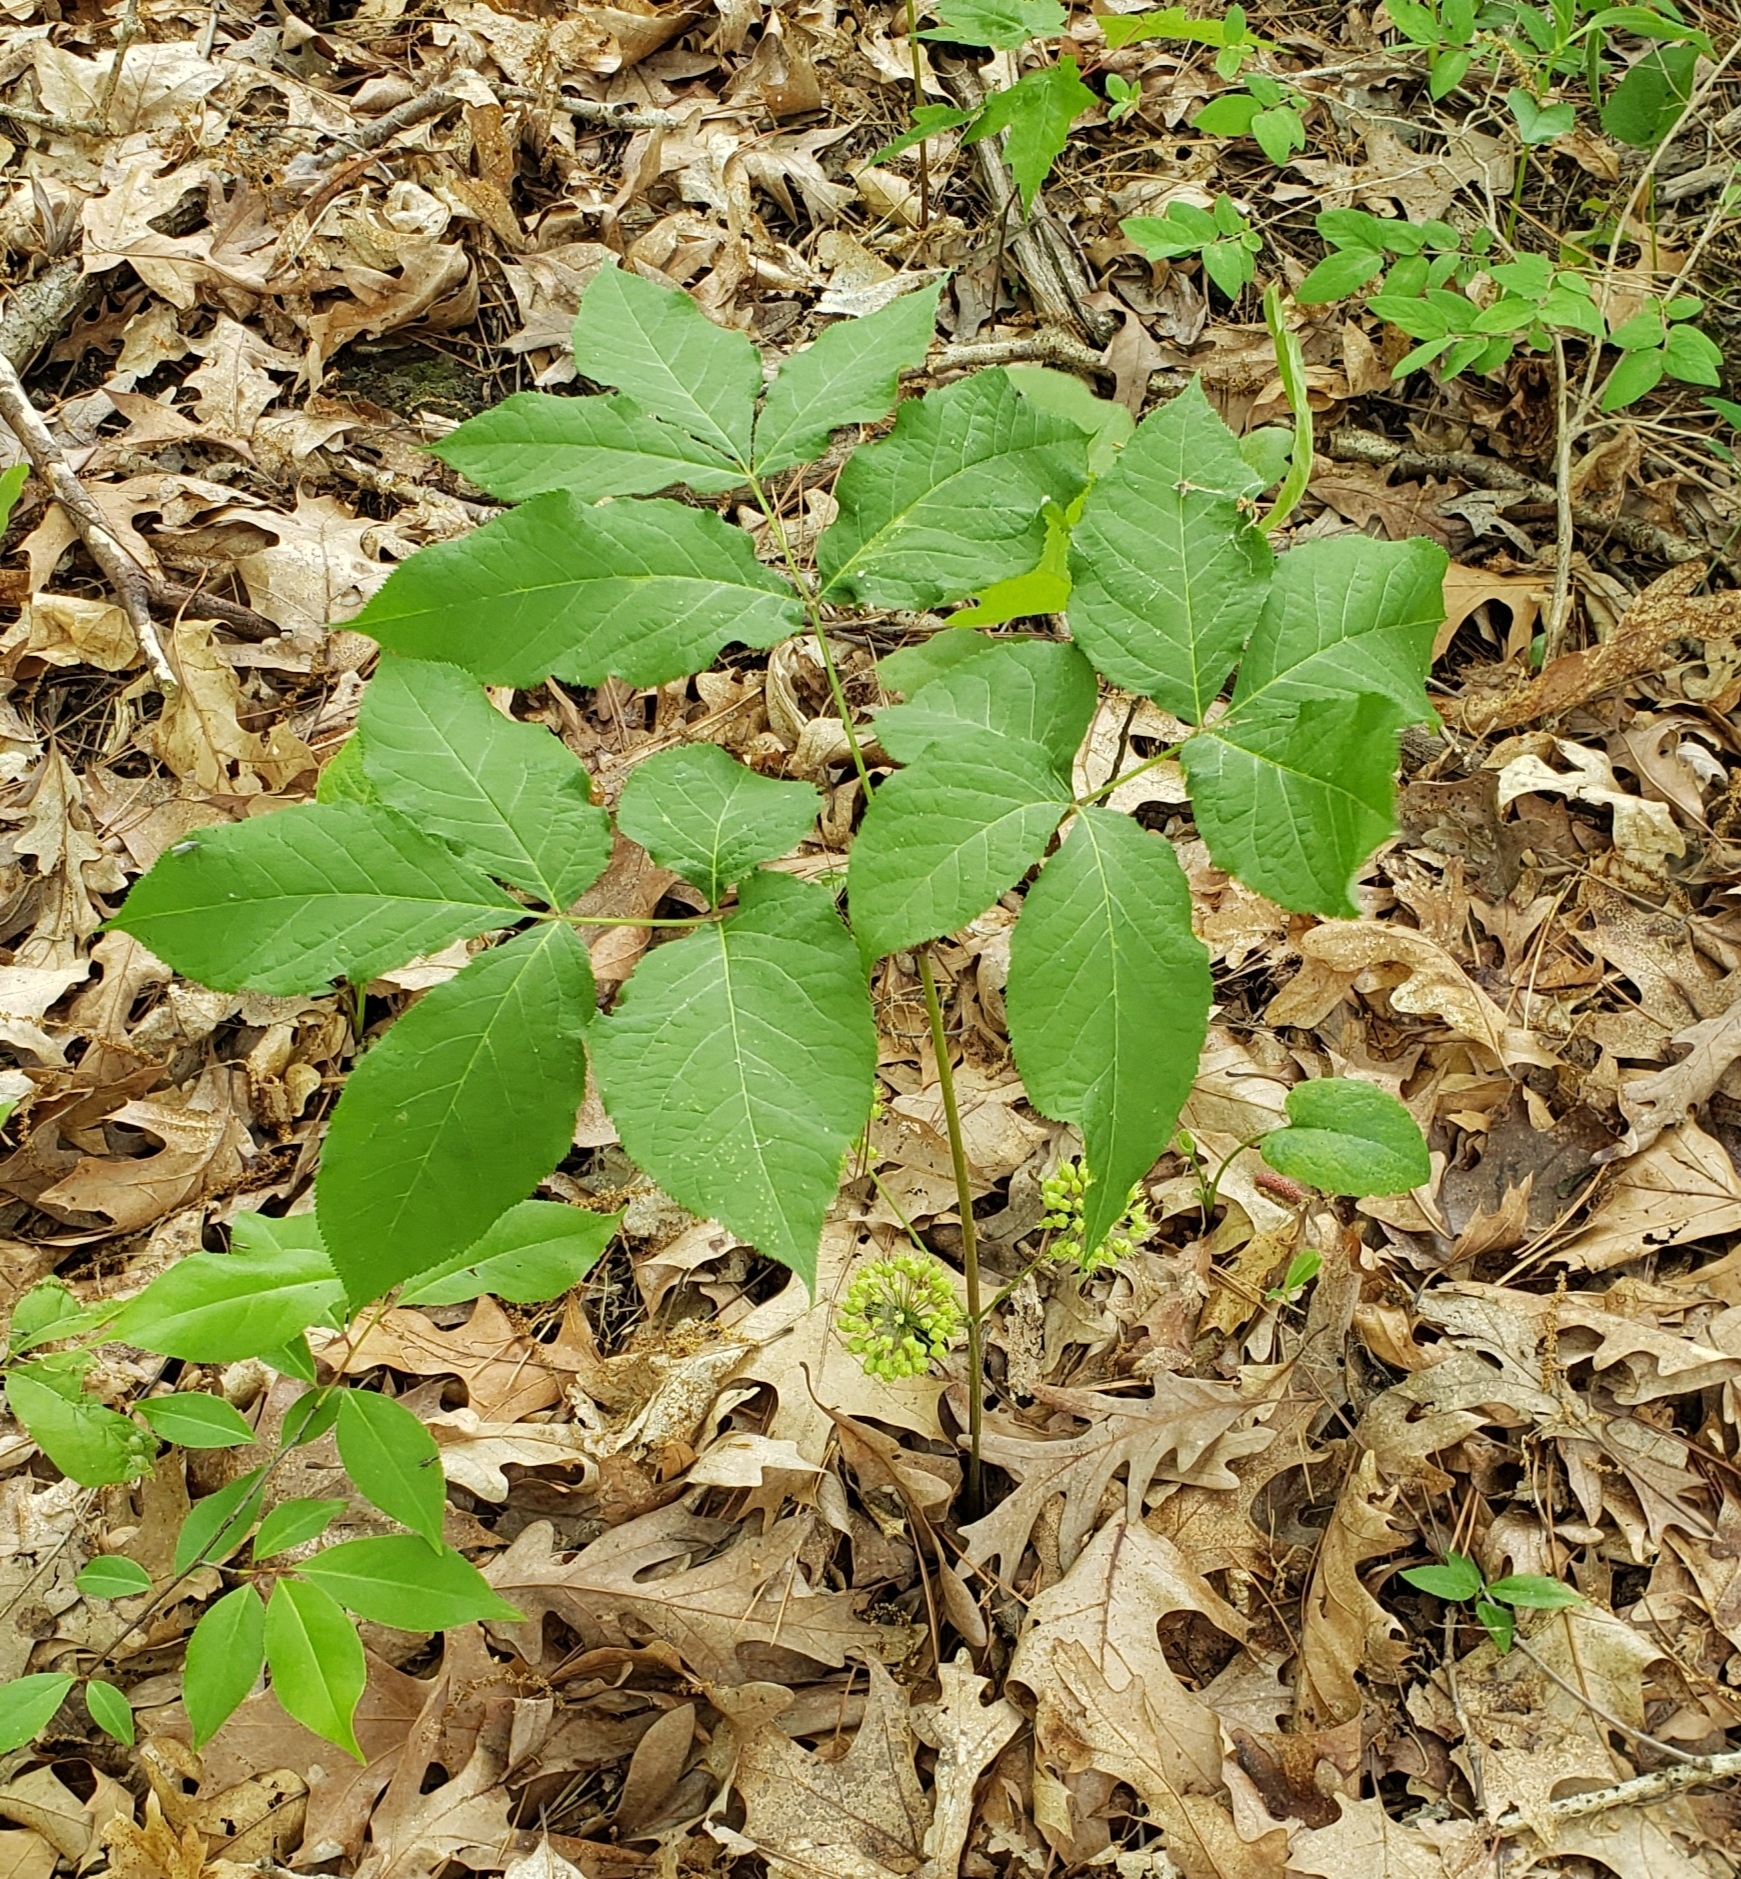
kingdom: Plantae
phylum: Tracheophyta
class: Magnoliopsida
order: Apiales
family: Araliaceae
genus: Aralia
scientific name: Aralia nudicaulis
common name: Wild sarsaparilla
